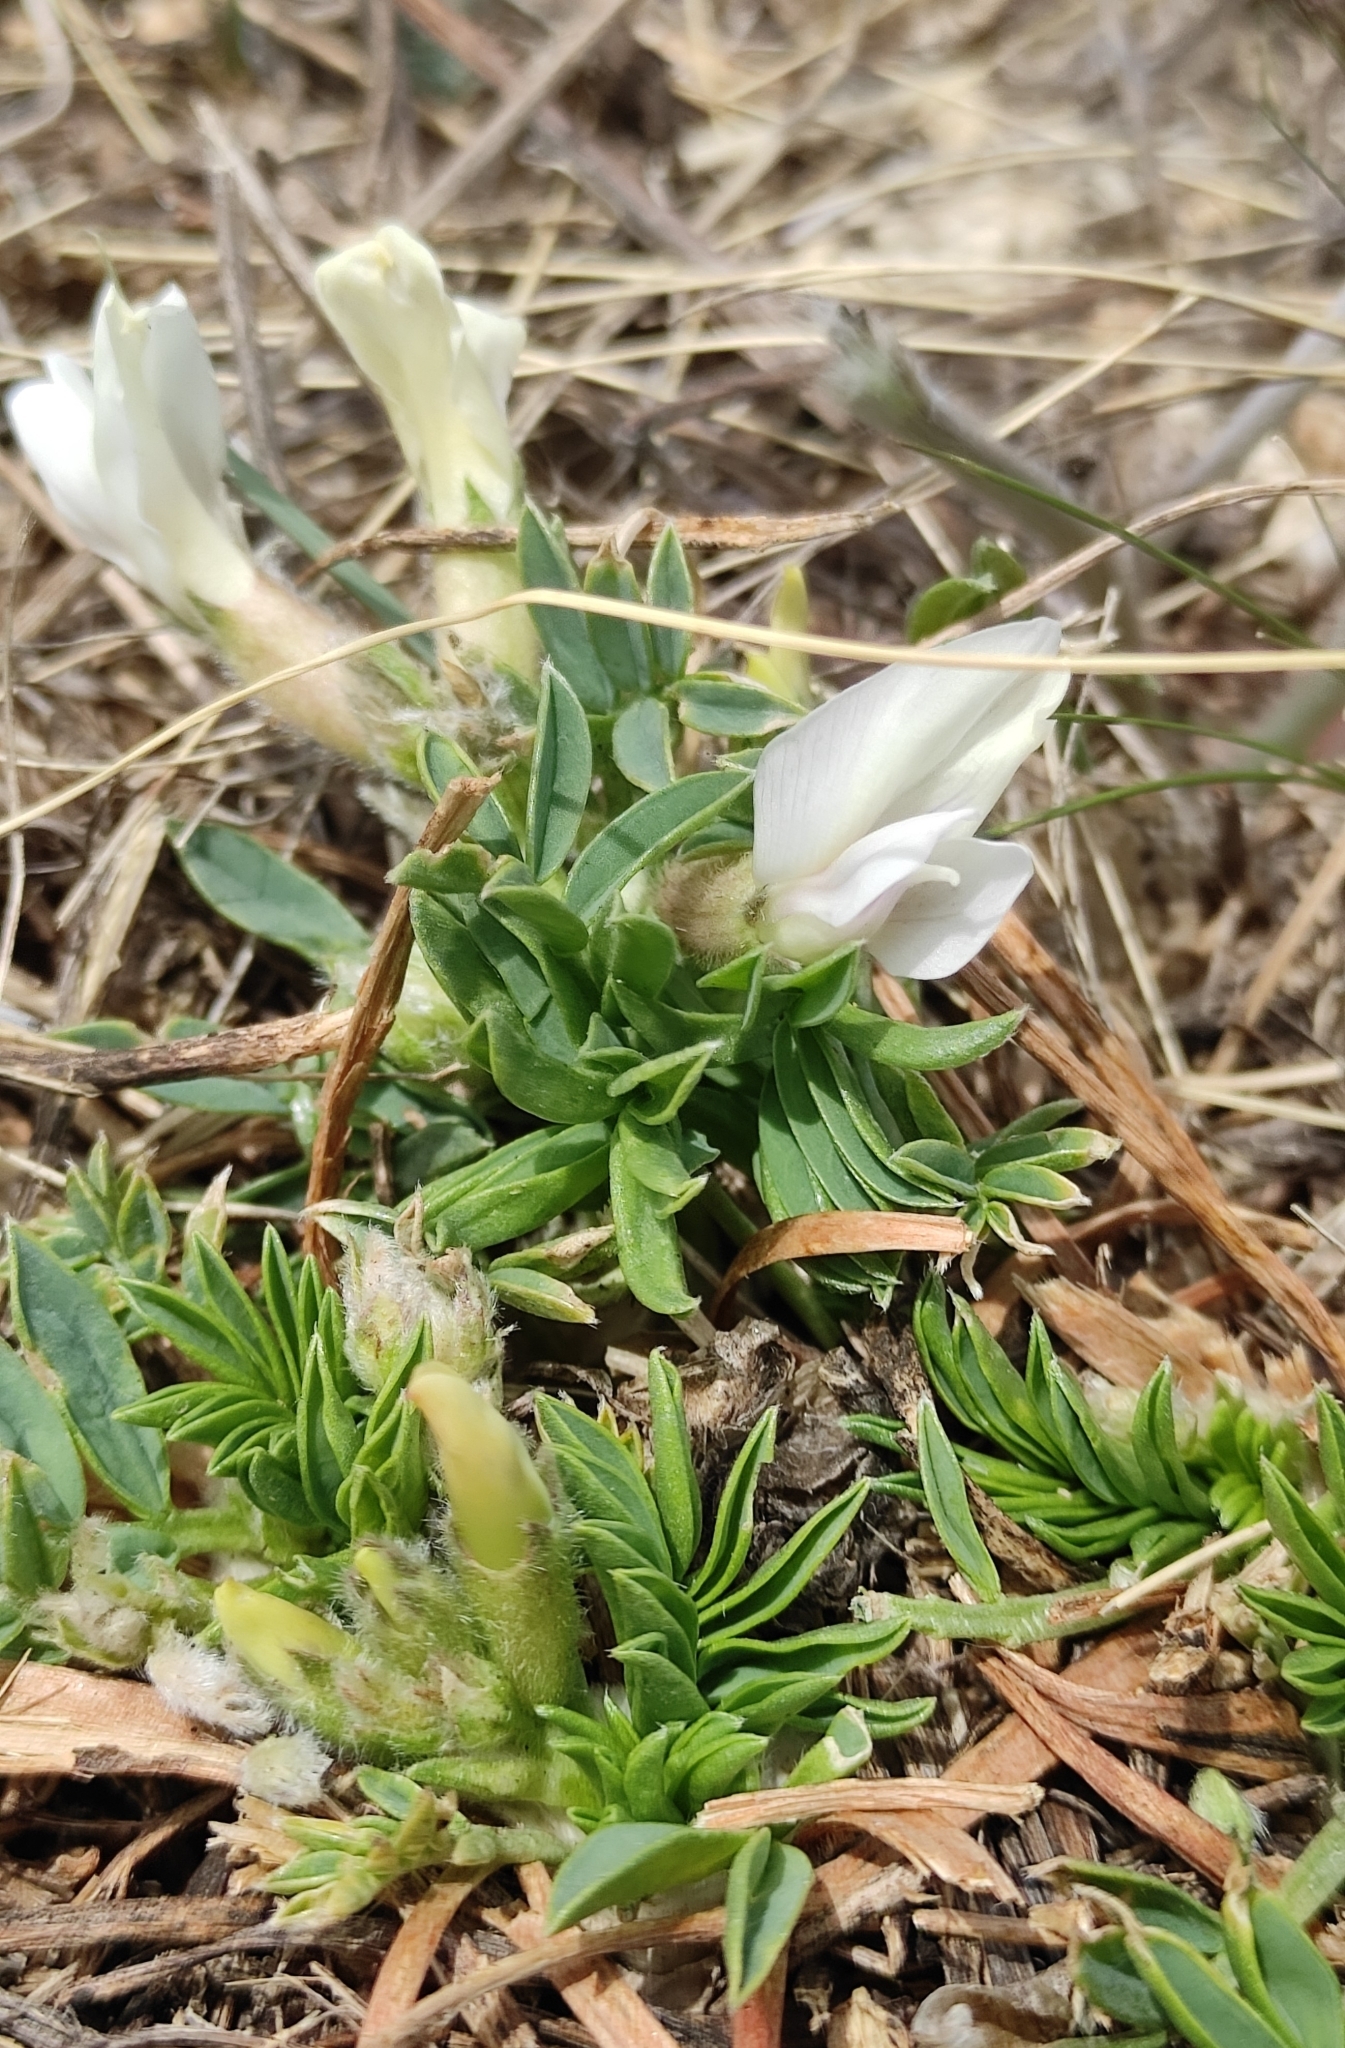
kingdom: Plantae
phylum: Tracheophyta
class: Magnoliopsida
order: Fabales
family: Fabaceae
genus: Oxytropis
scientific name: Oxytropis caespitosa
